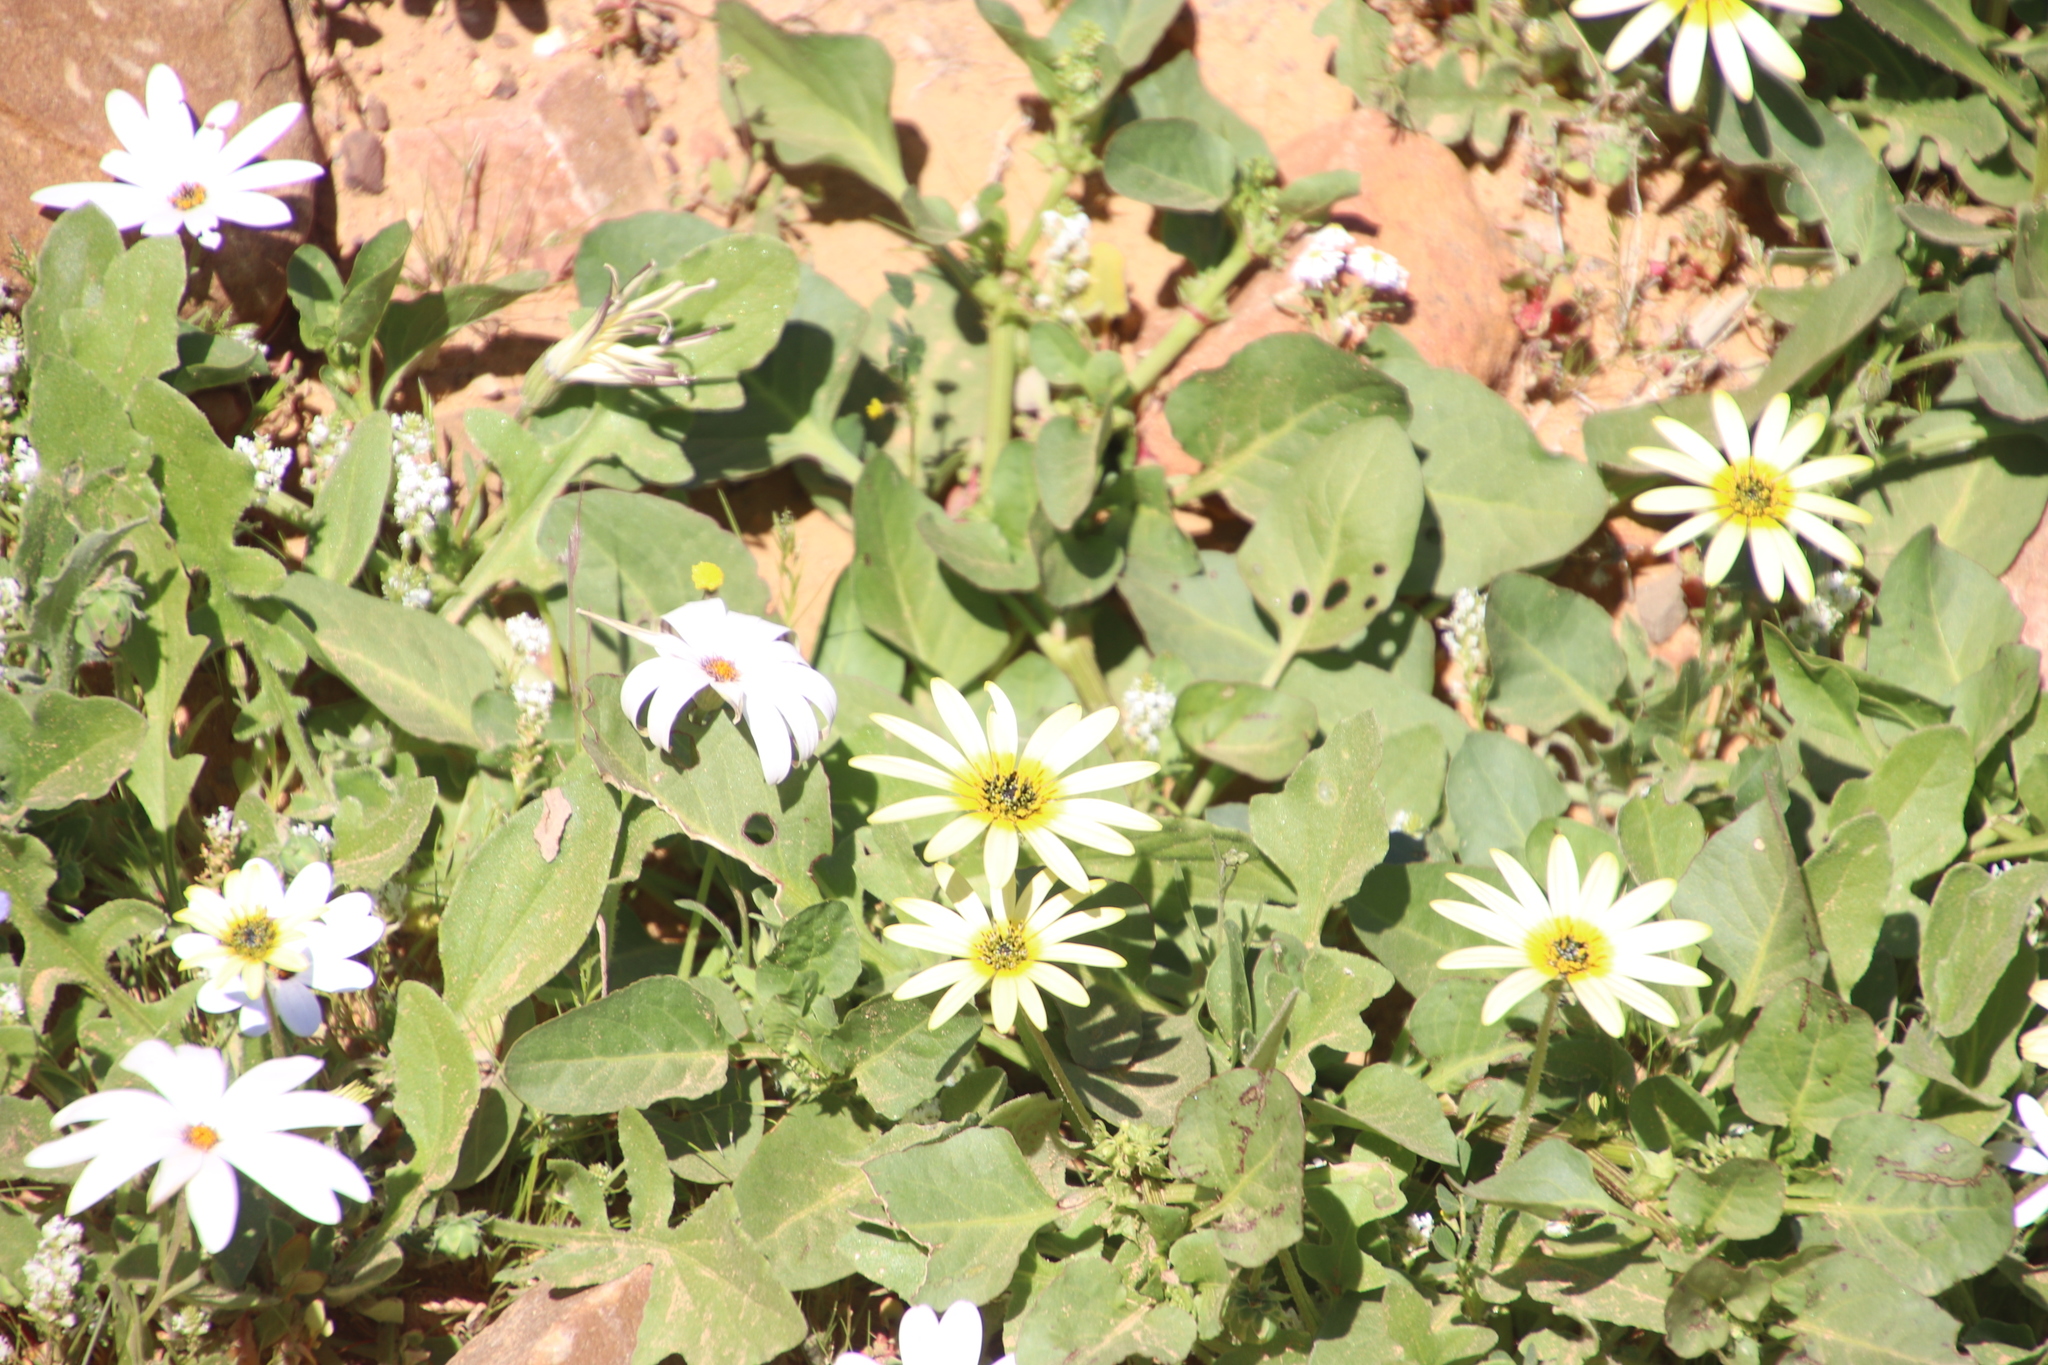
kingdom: Plantae
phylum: Tracheophyta
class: Magnoliopsida
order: Asterales
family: Asteraceae
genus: Arctotheca
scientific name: Arctotheca calendula
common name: Capeweed
